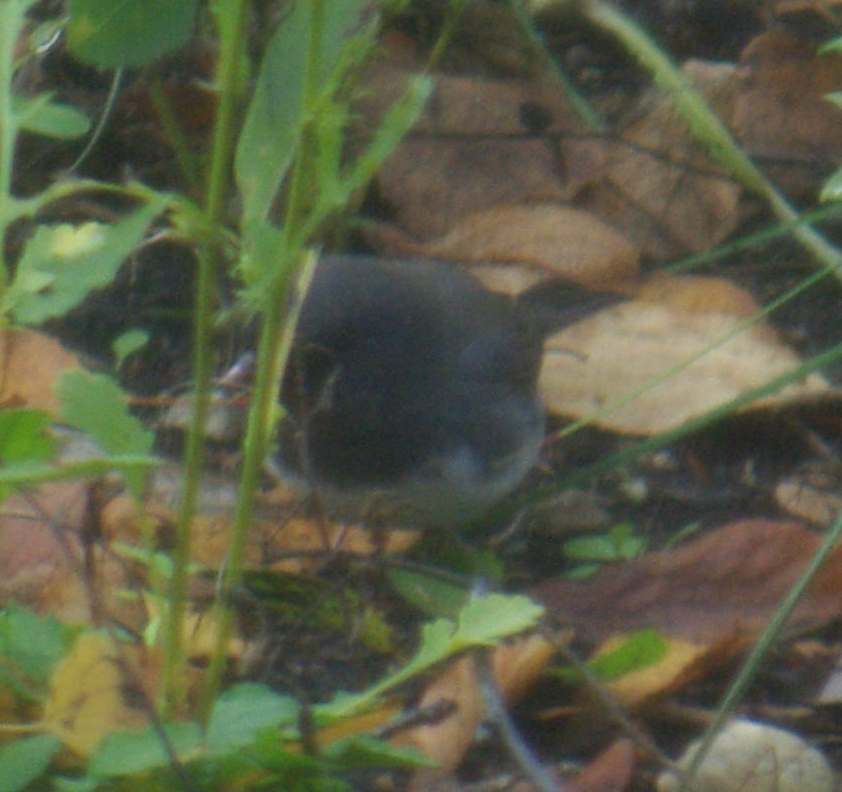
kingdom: Animalia
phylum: Chordata
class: Aves
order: Passeriformes
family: Passerellidae
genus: Junco
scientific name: Junco hyemalis
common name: Dark-eyed junco
